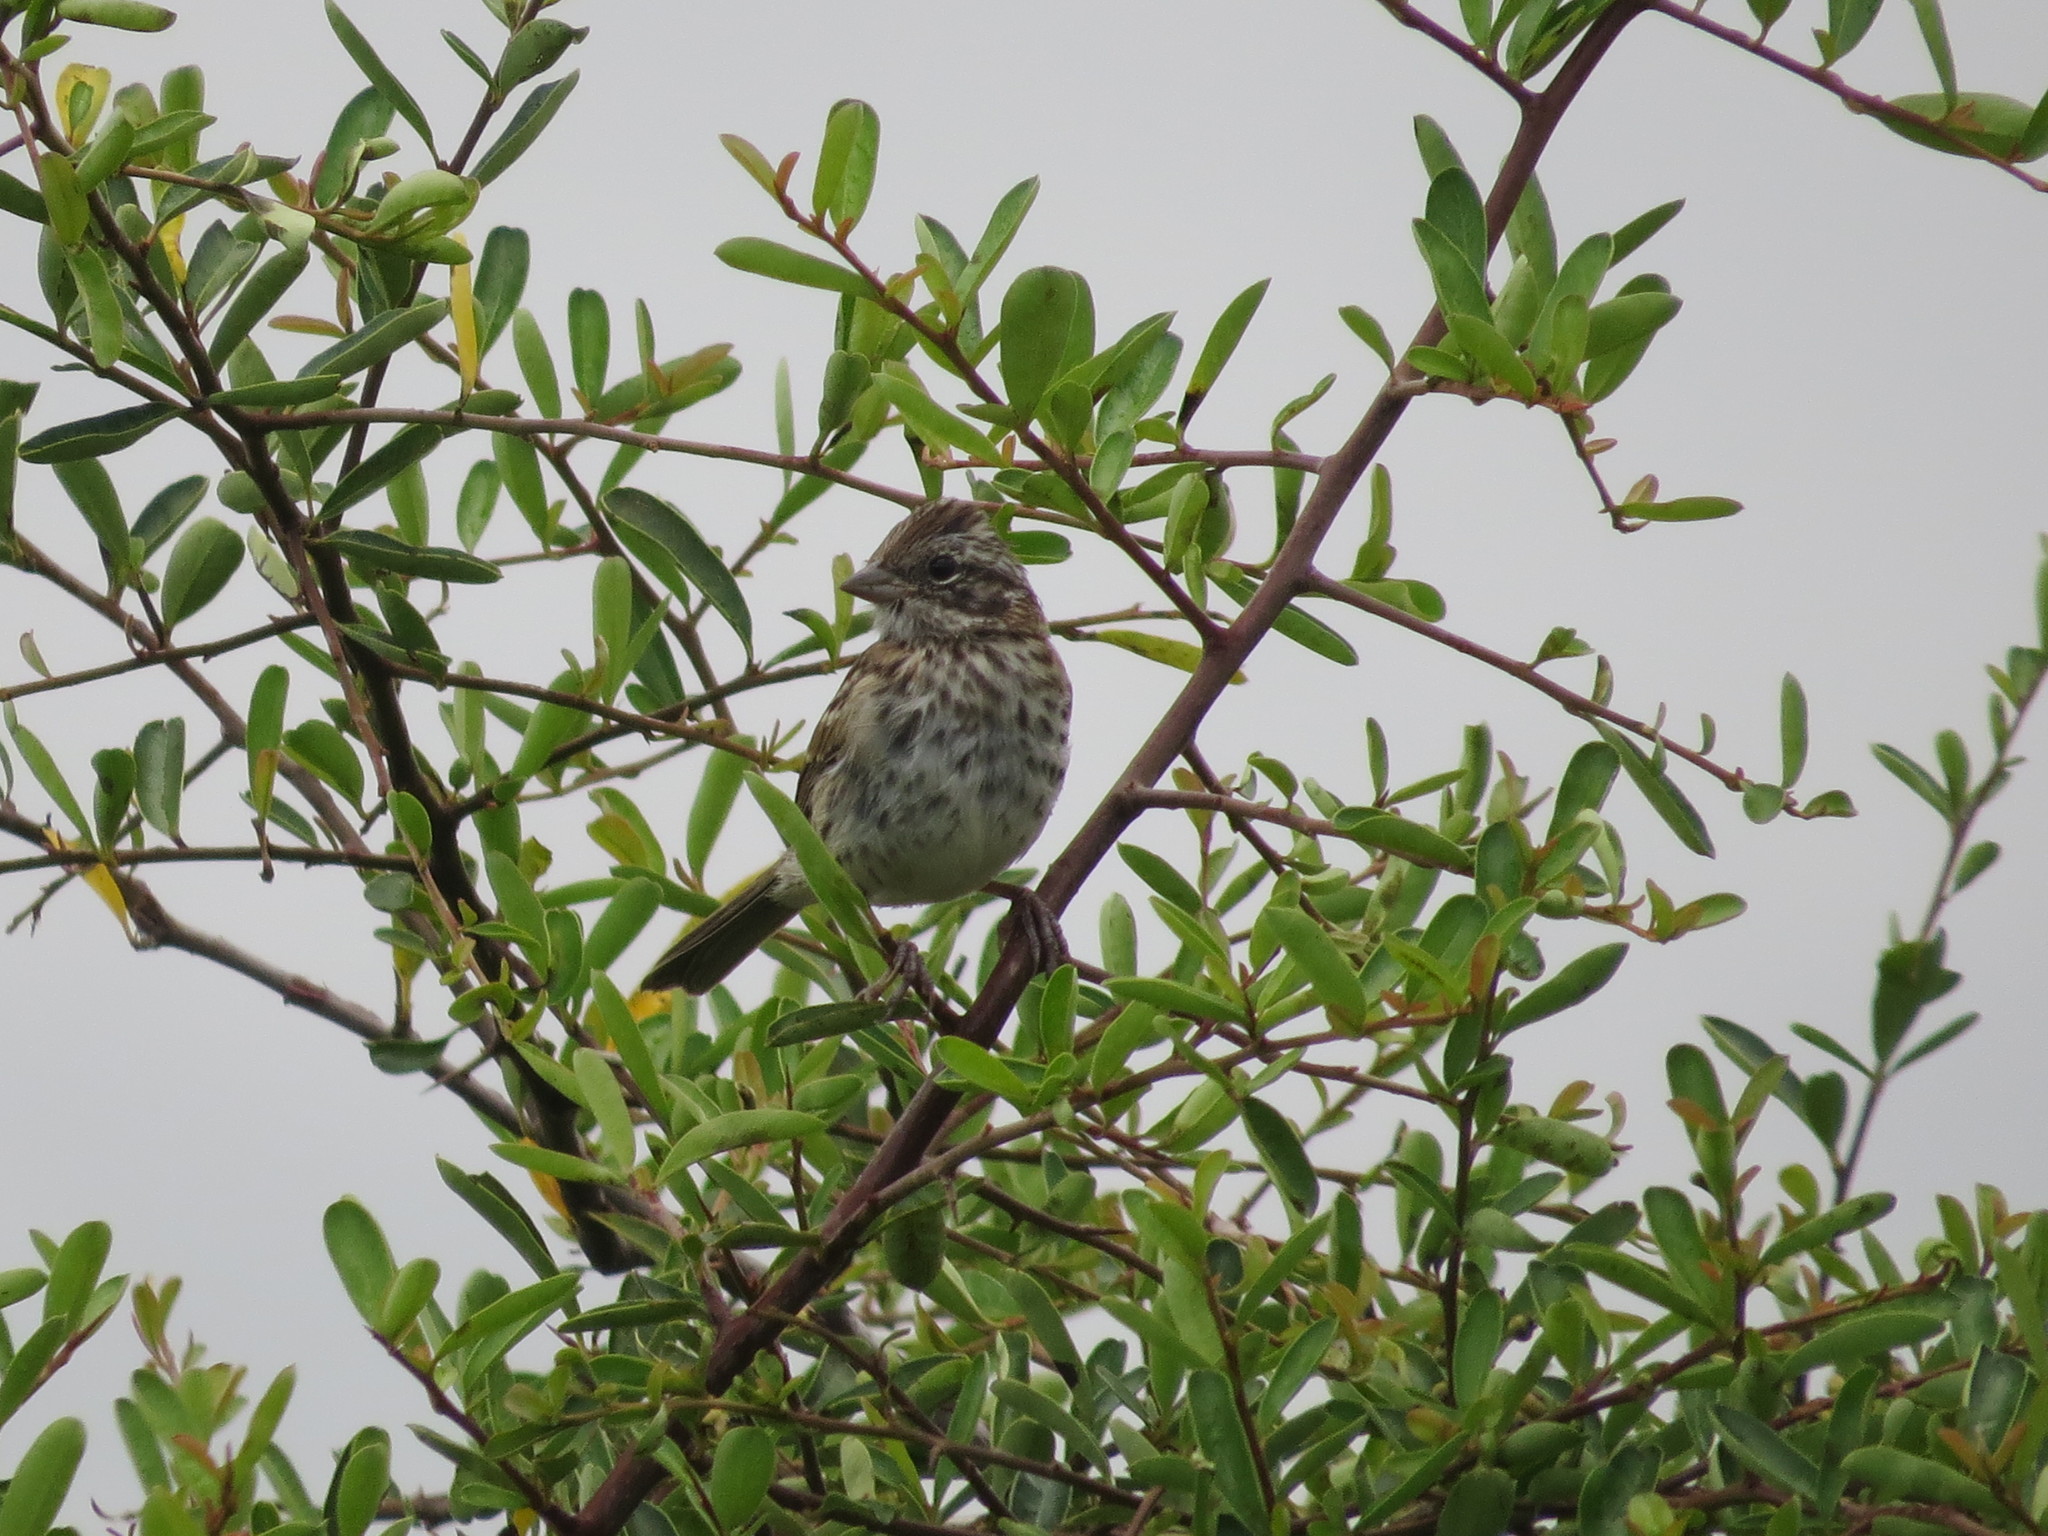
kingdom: Animalia
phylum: Chordata
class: Aves
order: Passeriformes
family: Passerellidae
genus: Zonotrichia
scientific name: Zonotrichia capensis
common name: Rufous-collared sparrow
